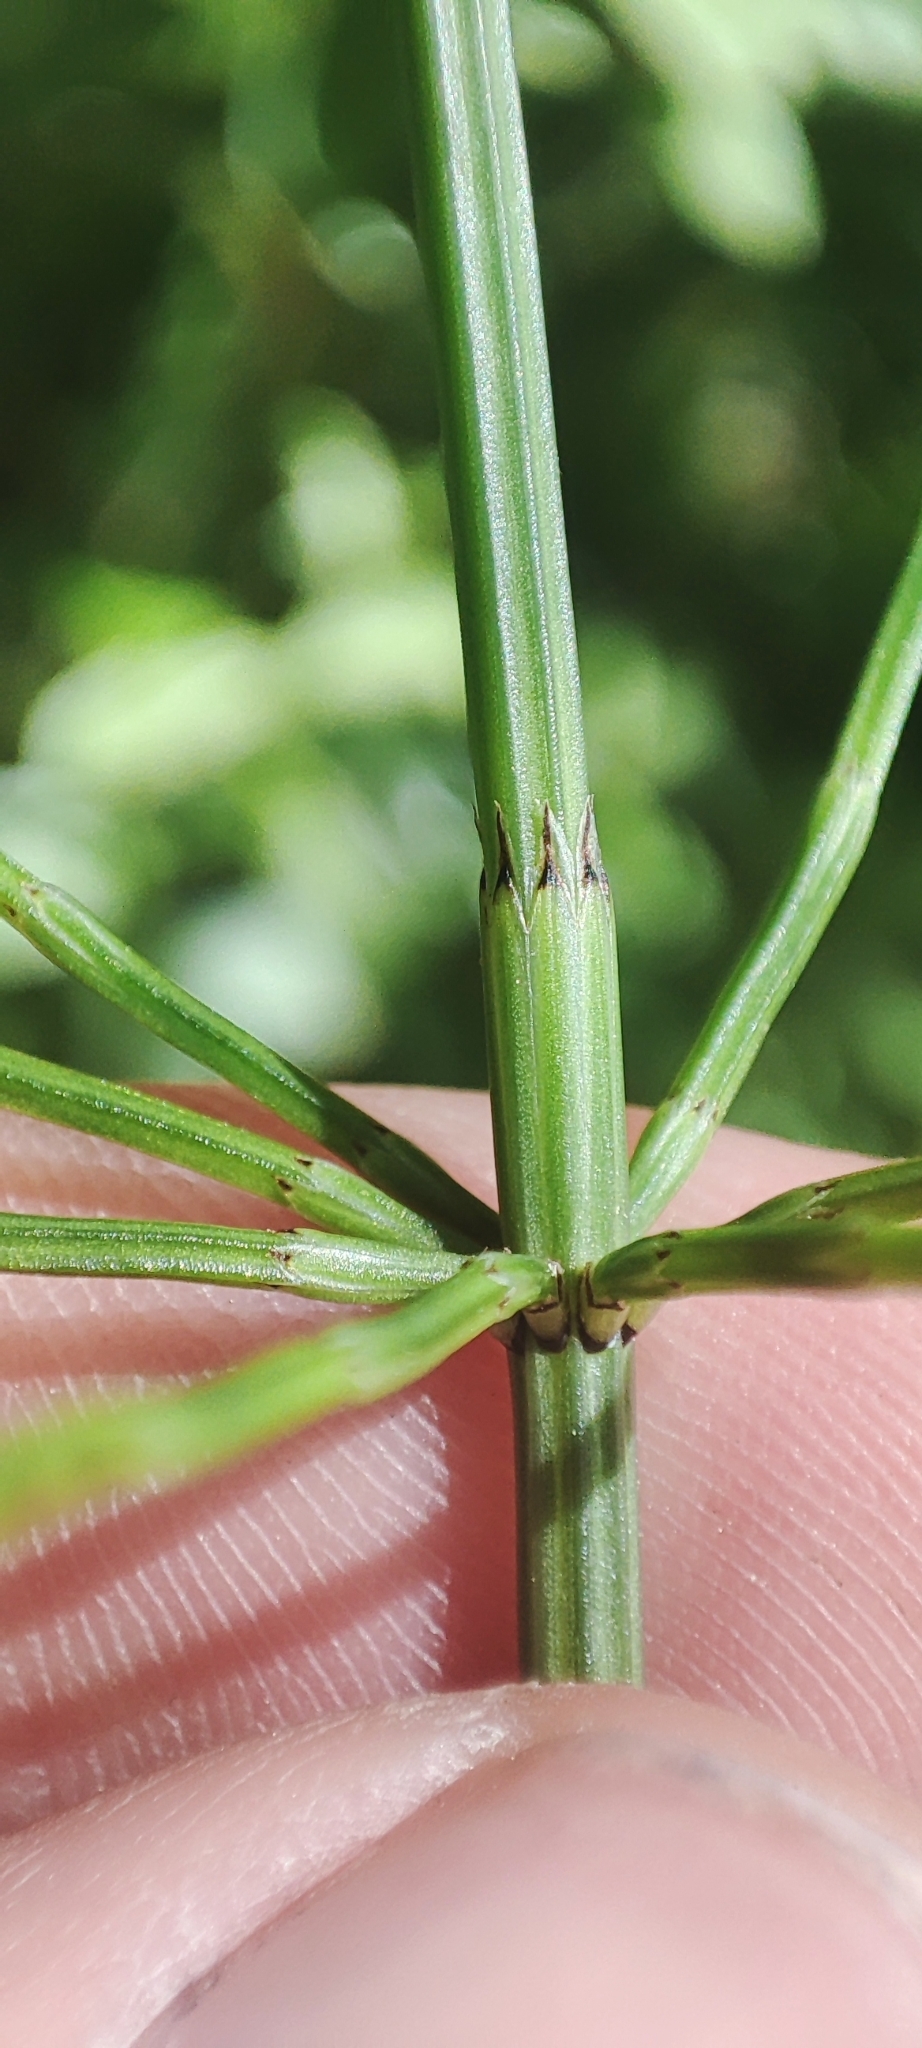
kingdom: Plantae
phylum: Tracheophyta
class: Polypodiopsida
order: Equisetales
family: Equisetaceae
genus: Equisetum
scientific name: Equisetum palustre
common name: Marsh horsetail
